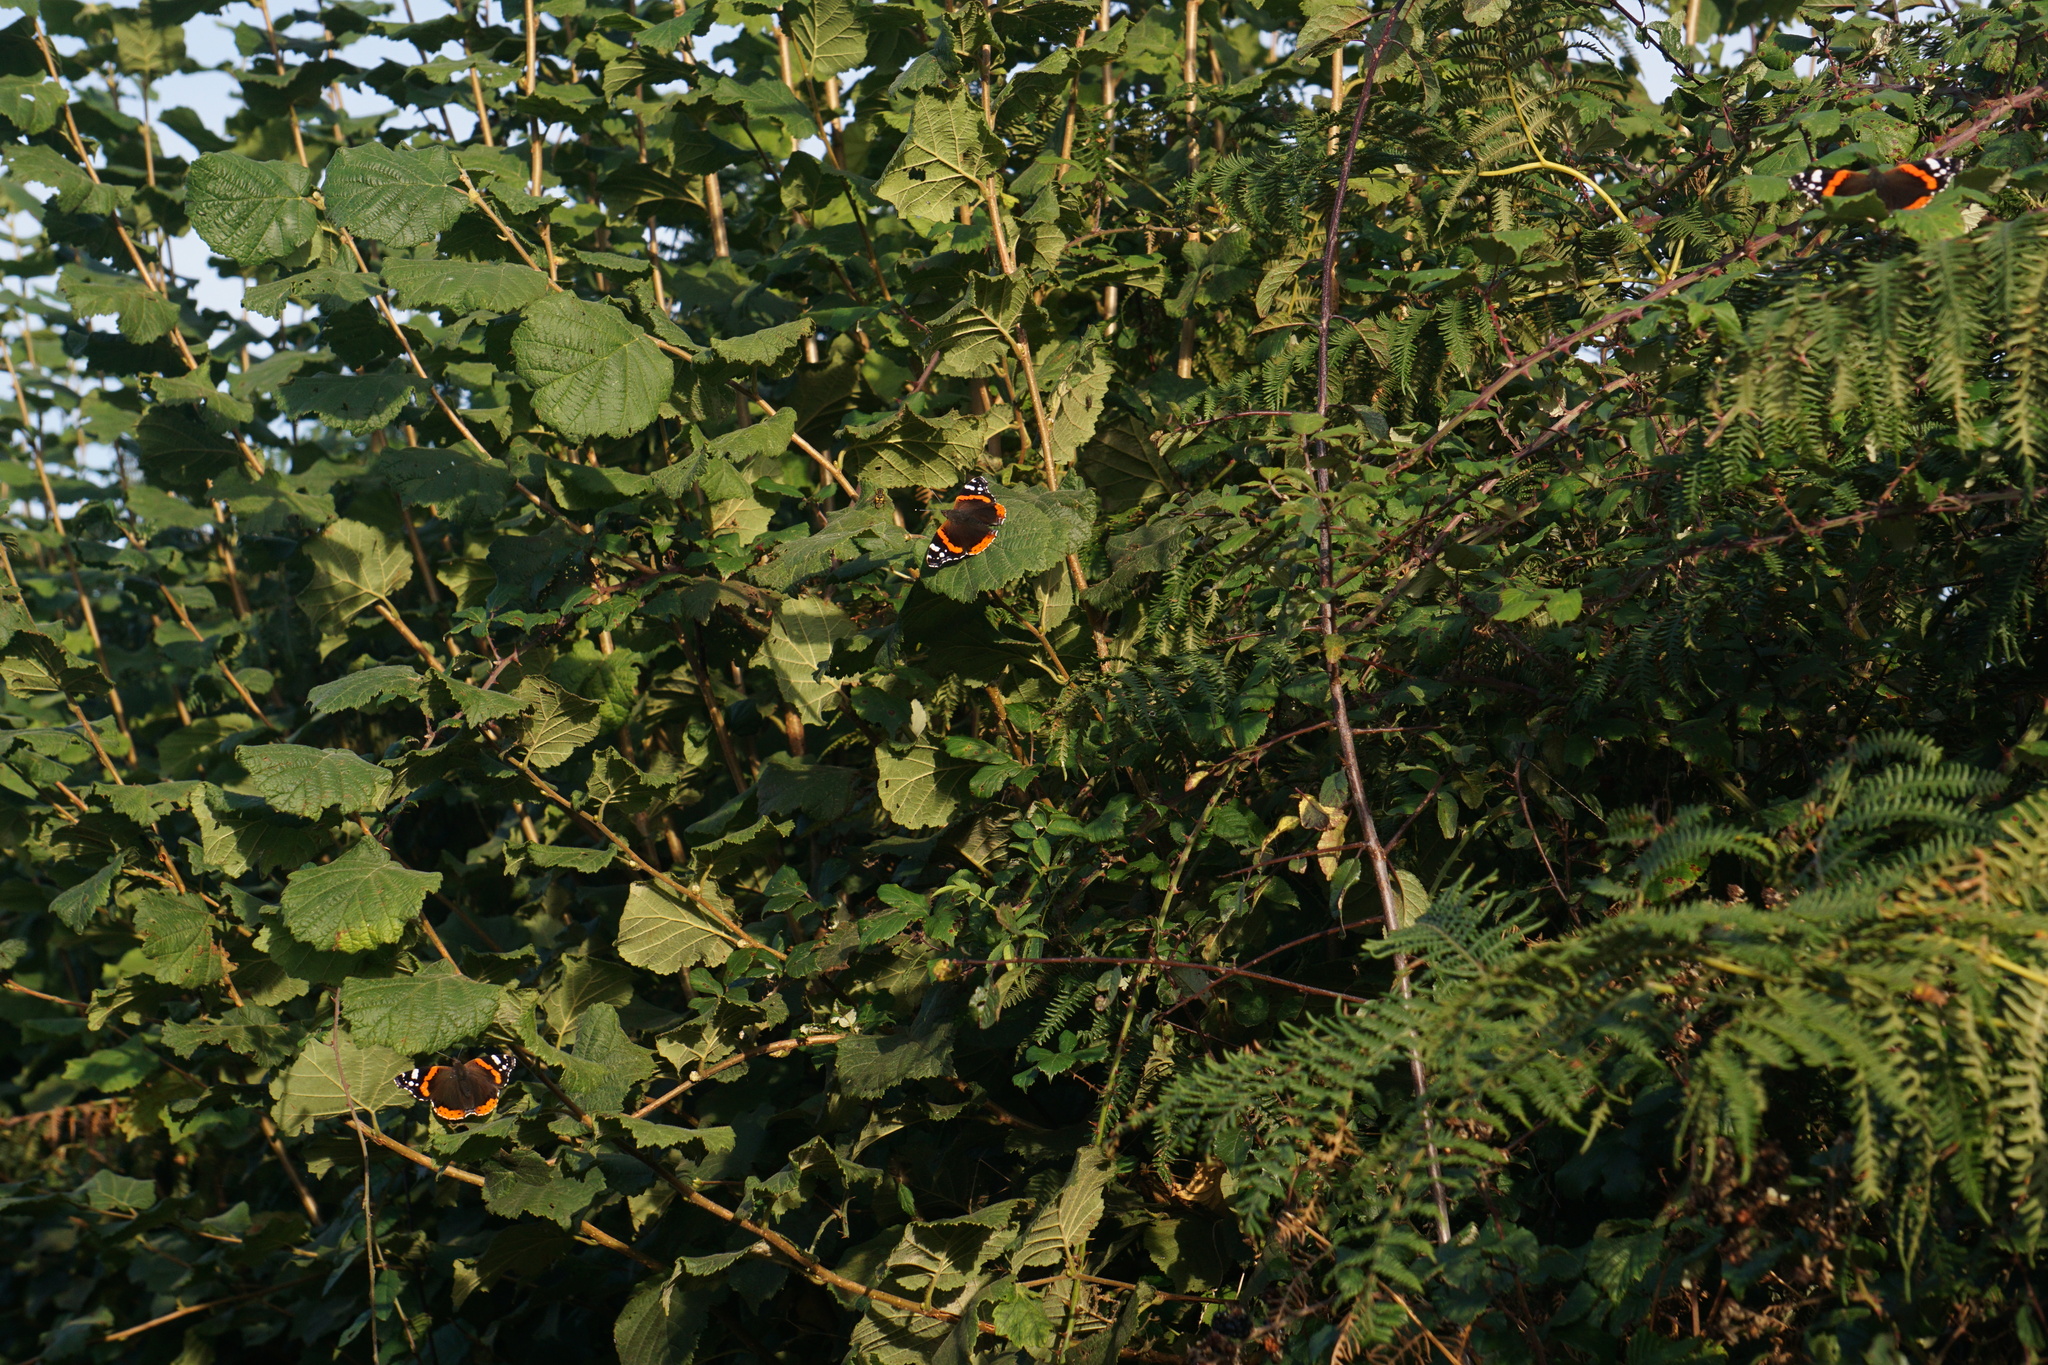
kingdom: Animalia
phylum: Arthropoda
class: Insecta
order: Lepidoptera
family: Nymphalidae
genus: Vanessa
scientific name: Vanessa atalanta
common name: Red admiral
